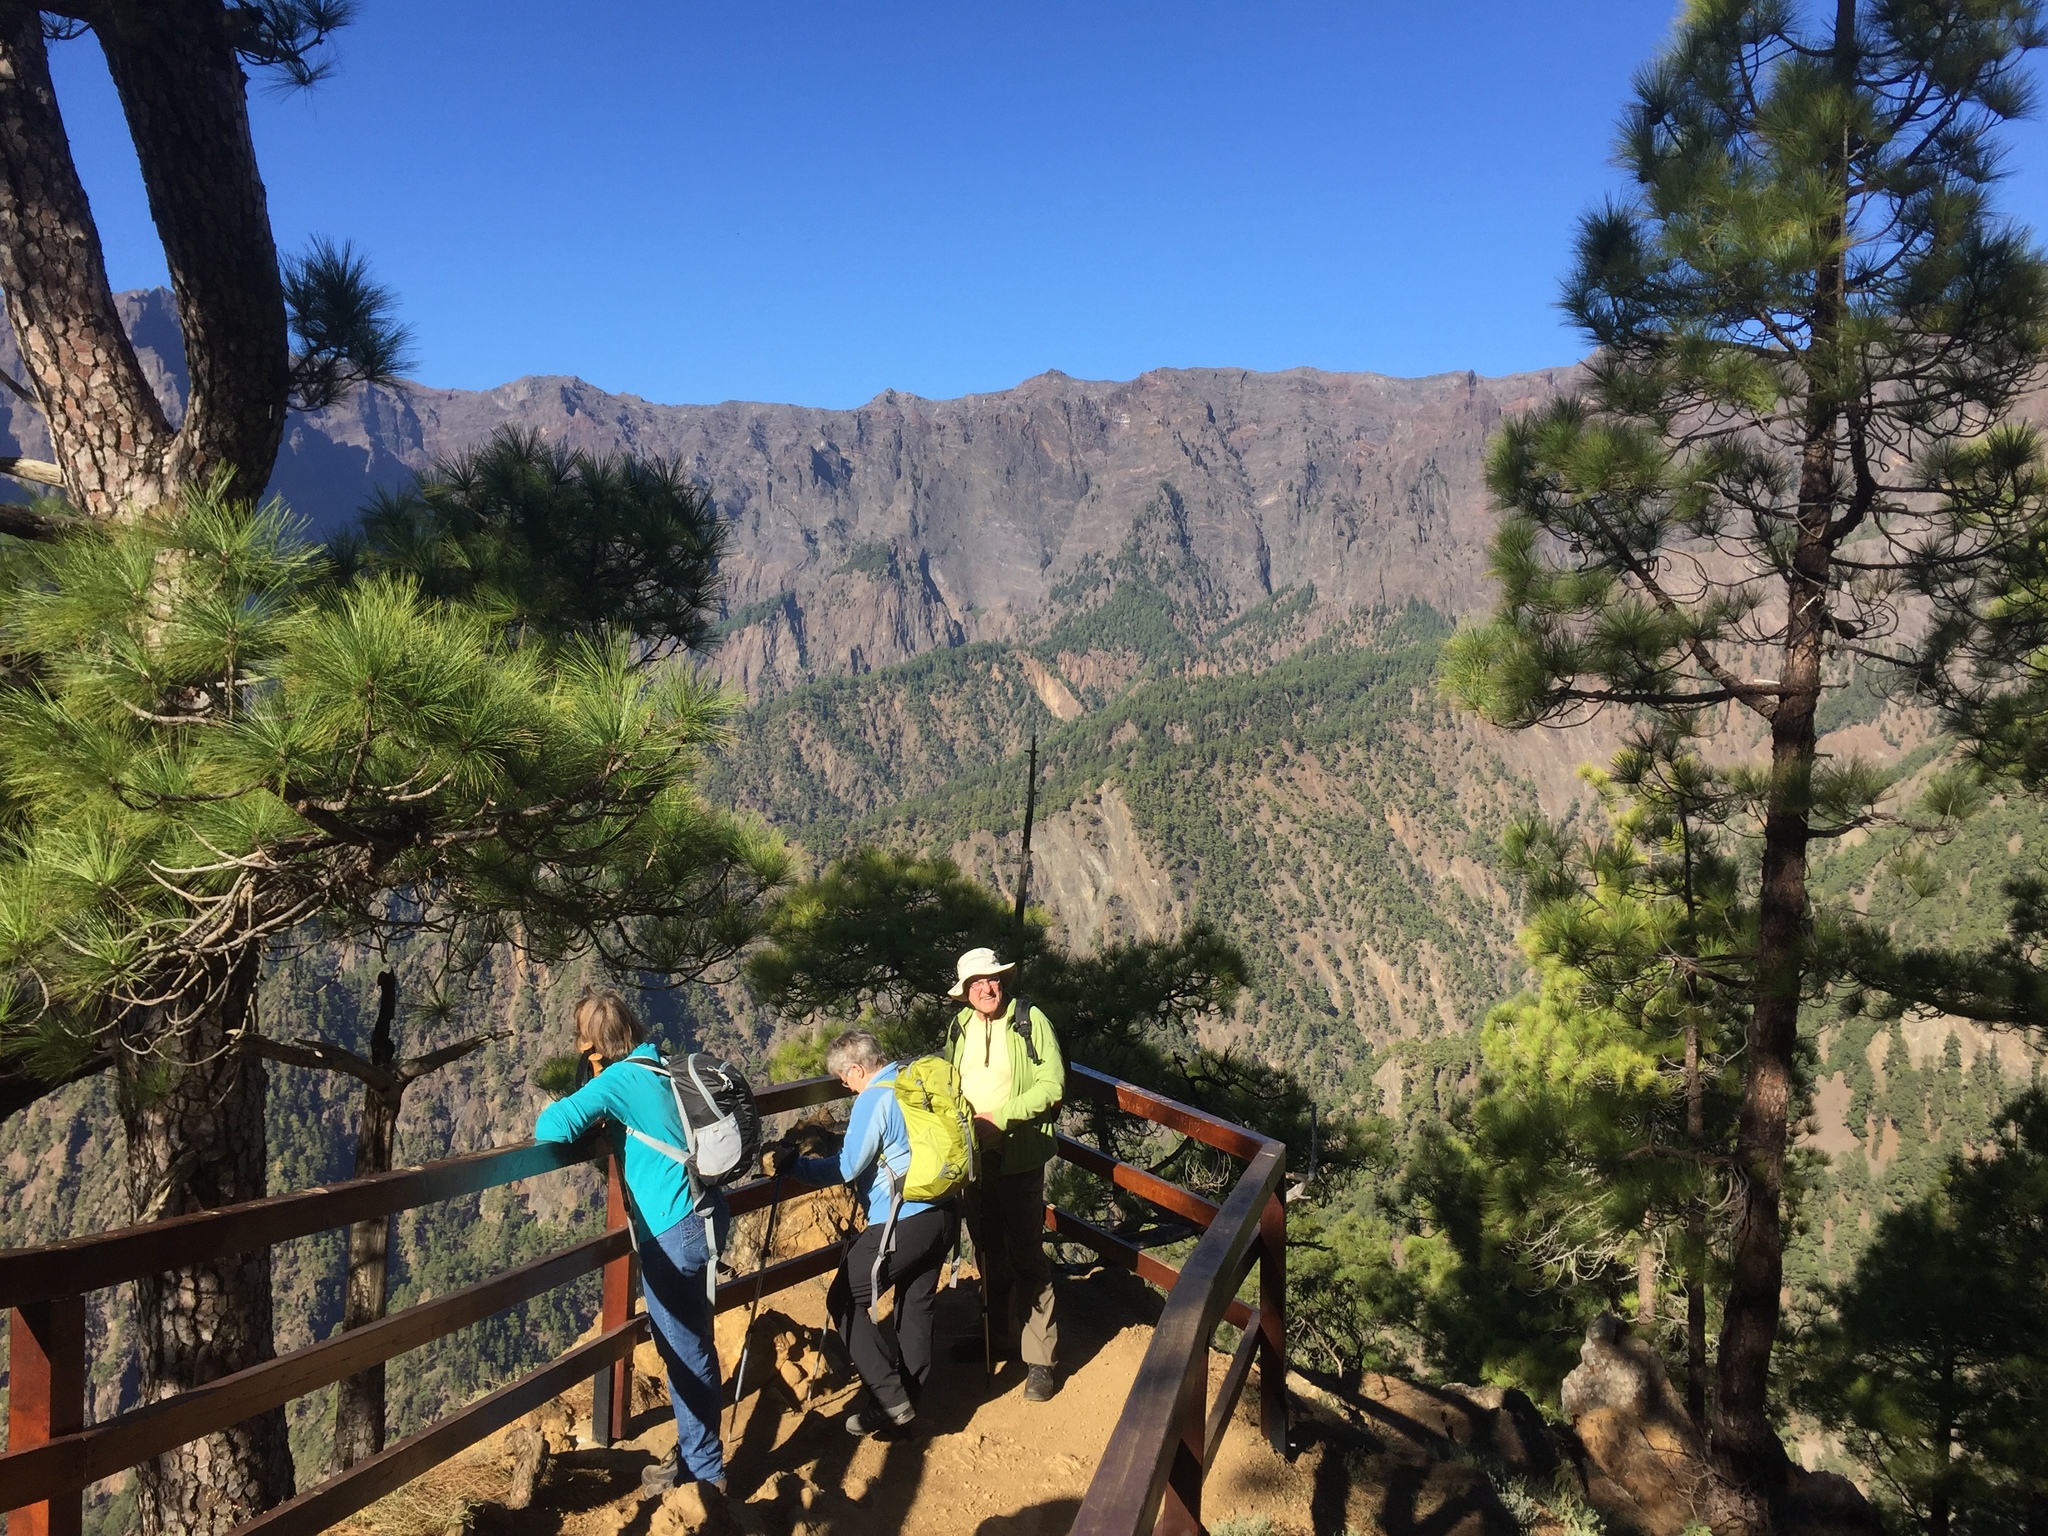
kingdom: Plantae
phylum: Tracheophyta
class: Pinopsida
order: Pinales
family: Pinaceae
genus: Pinus
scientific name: Pinus canariensis
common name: Canary islands pine
